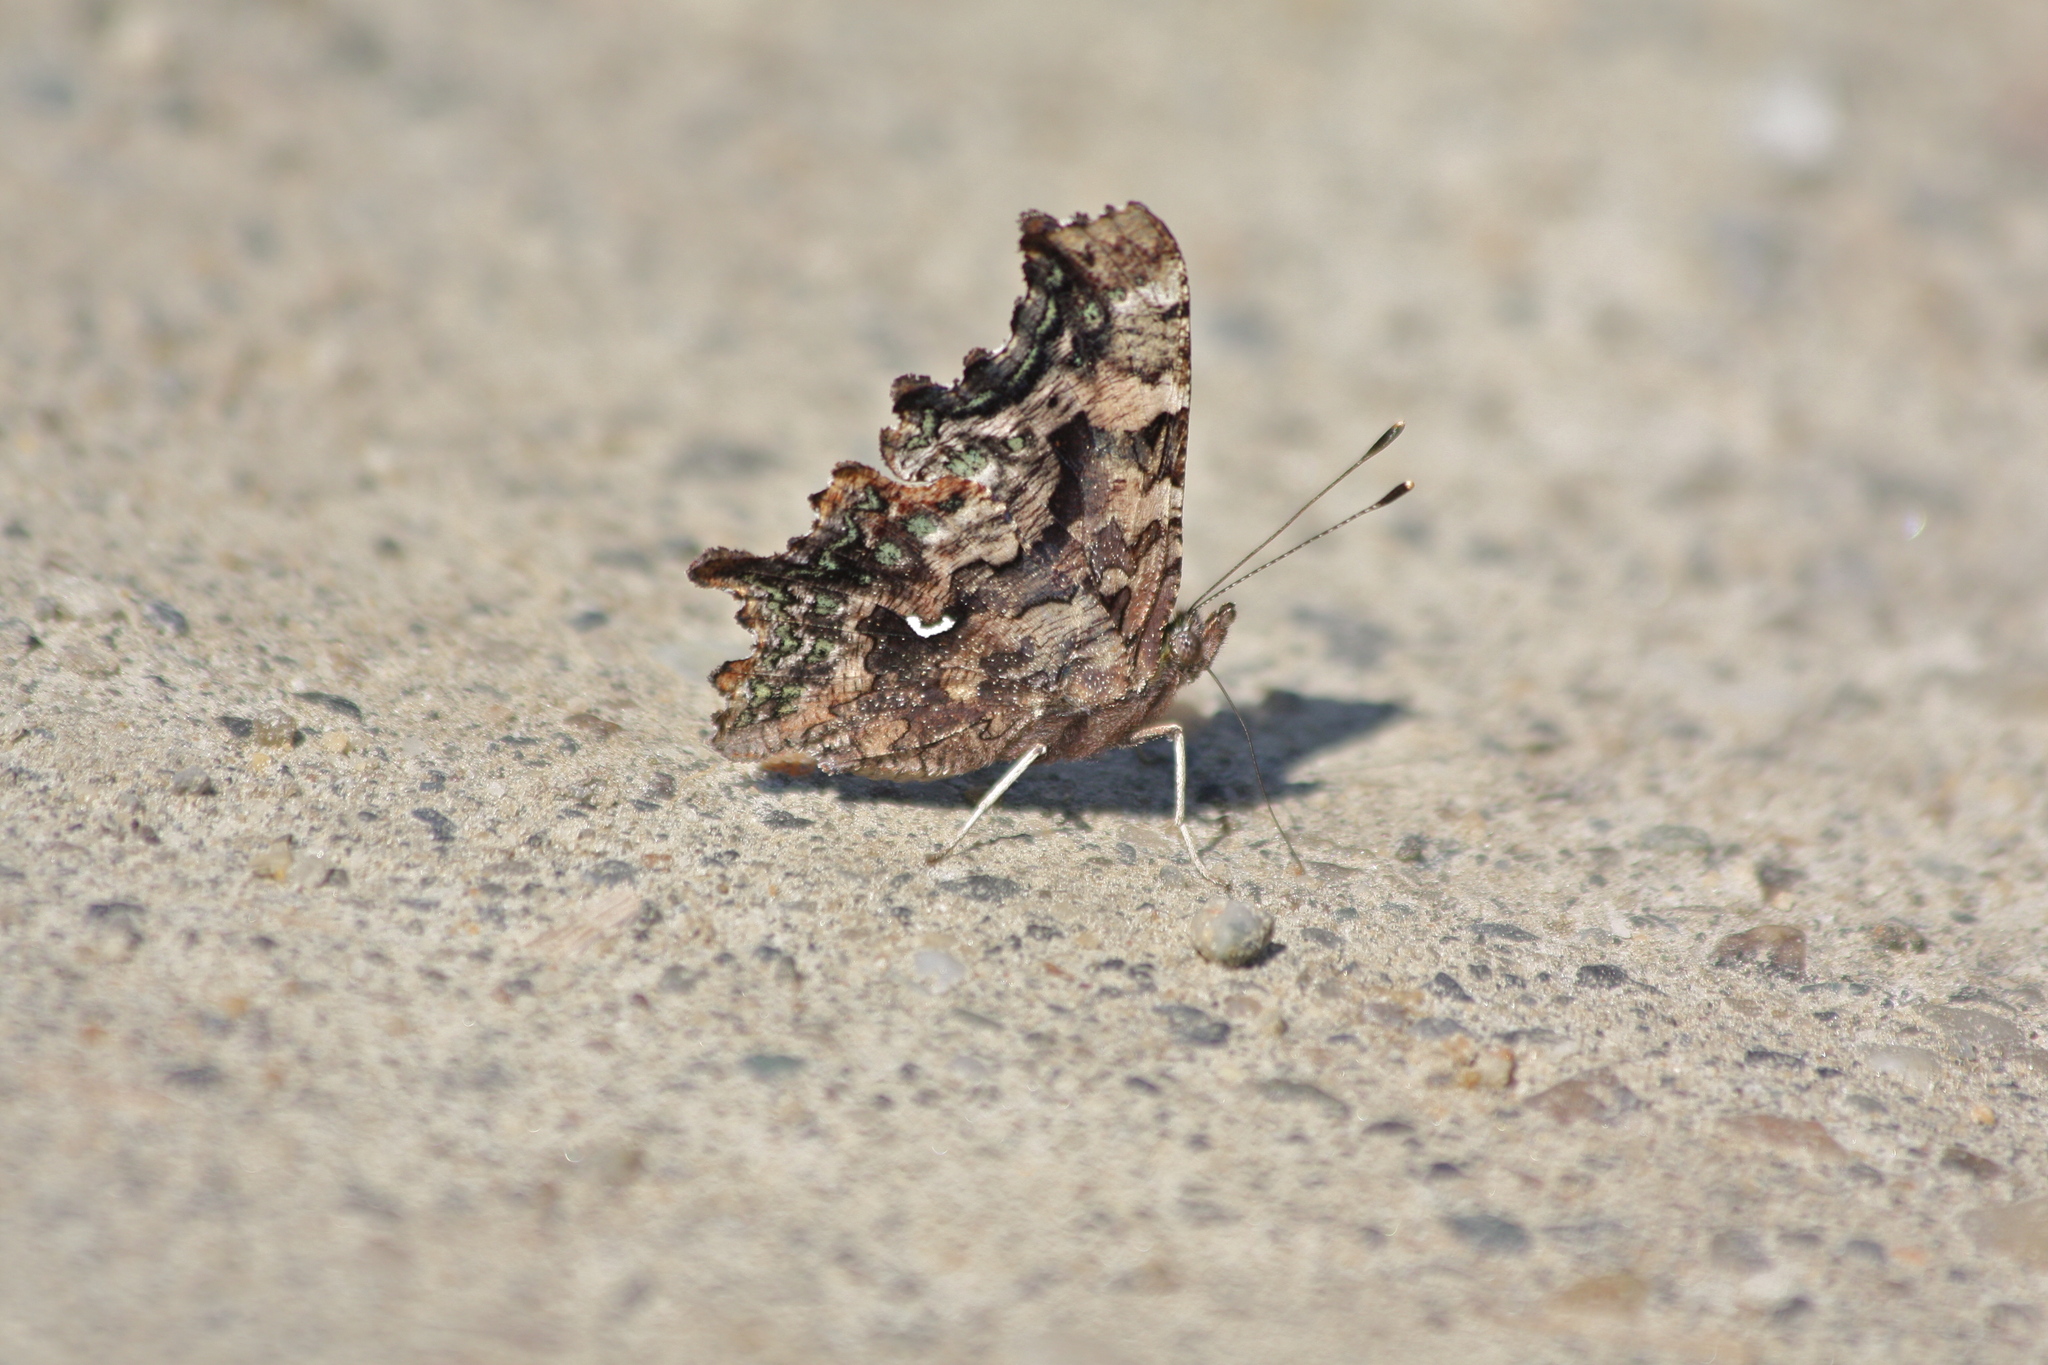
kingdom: Animalia
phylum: Arthropoda
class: Insecta
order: Lepidoptera
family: Nymphalidae
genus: Polygonia
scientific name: Polygonia faunus
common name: Green comma
